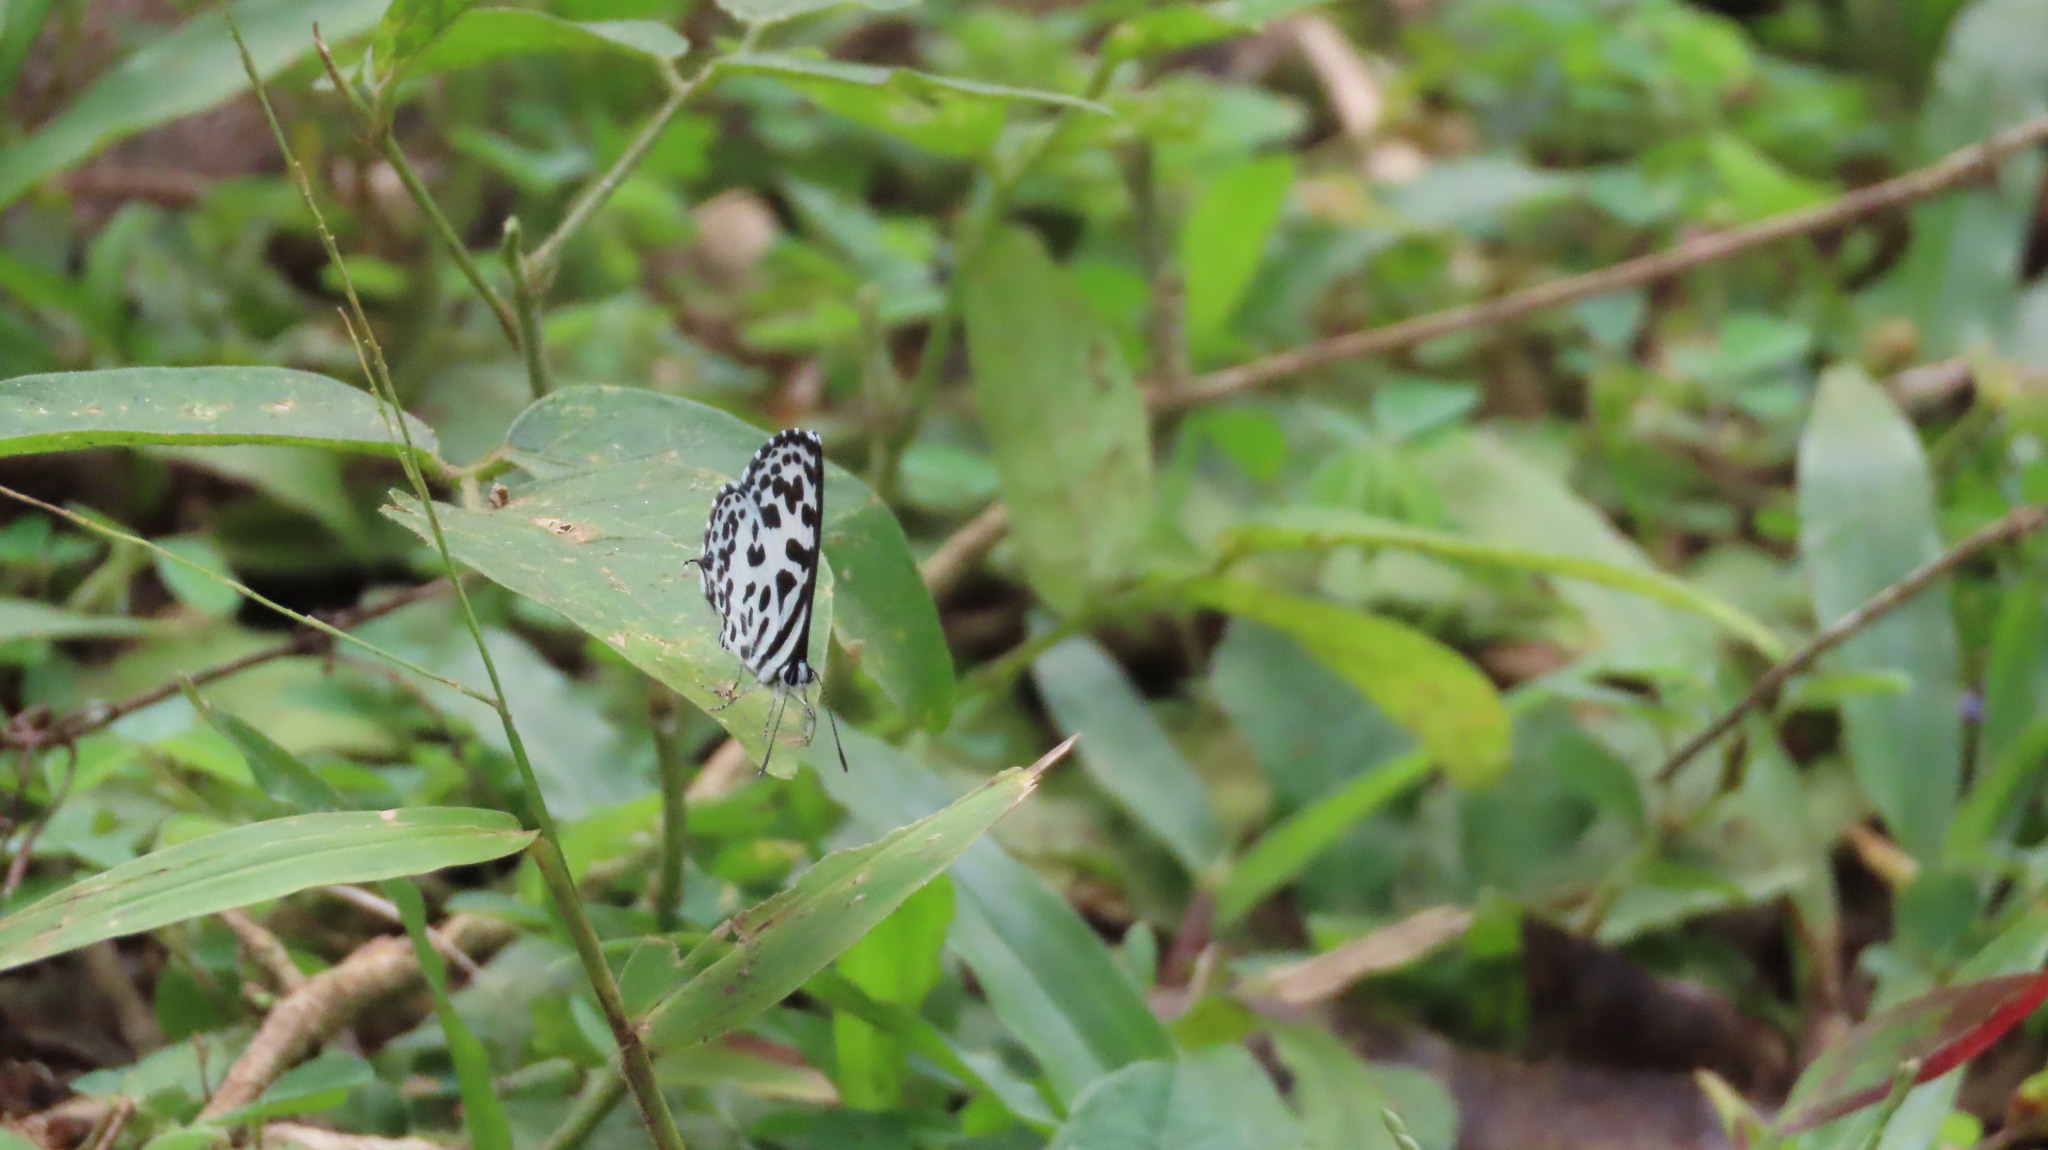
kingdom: Animalia
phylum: Arthropoda
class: Insecta
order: Lepidoptera
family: Lycaenidae
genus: Castalius
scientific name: Castalius rosimon
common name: Common pierrot
